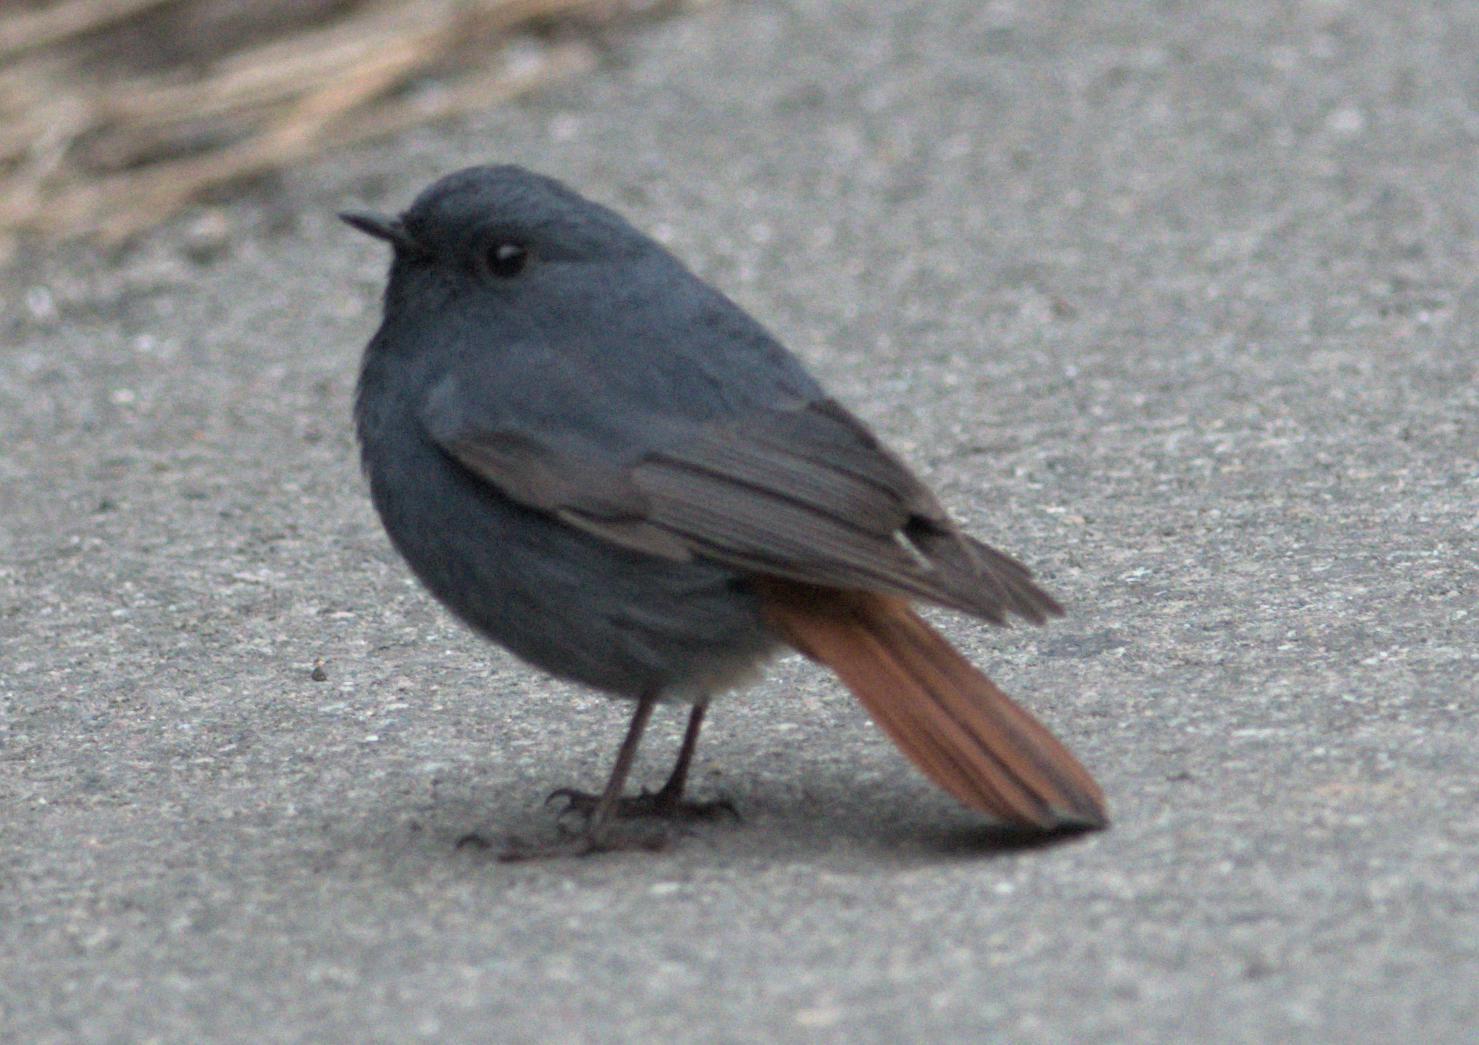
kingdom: Animalia
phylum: Chordata
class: Aves
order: Passeriformes
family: Muscicapidae
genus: Phoenicurus
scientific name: Phoenicurus fuliginosus
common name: Plumbeous water redstart
